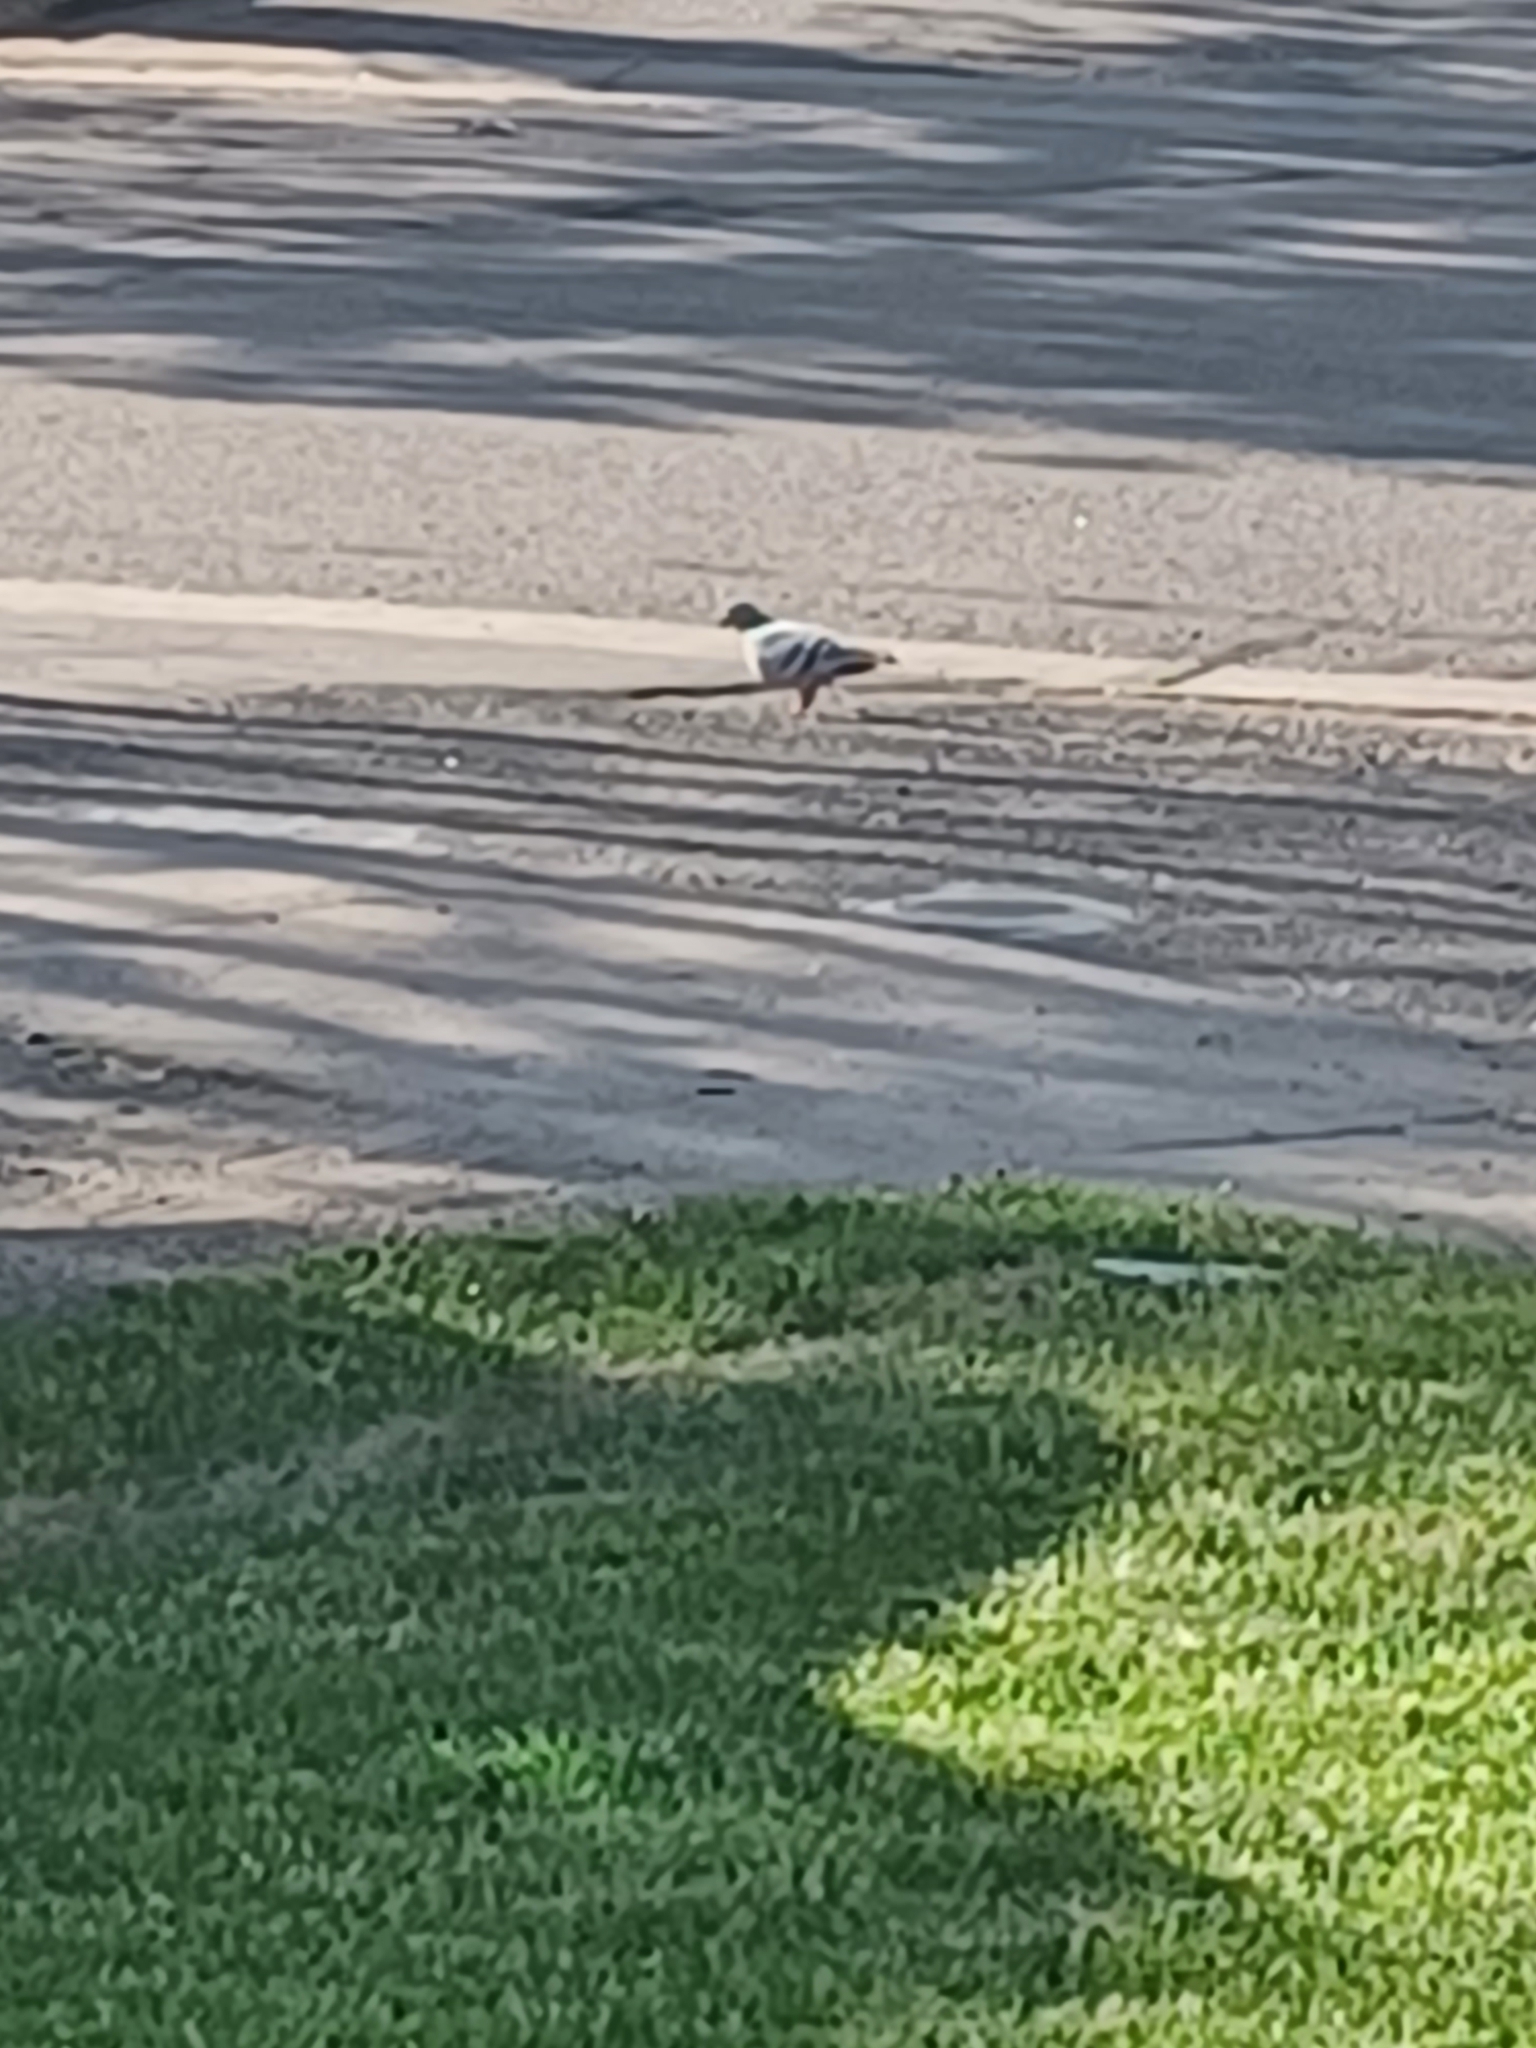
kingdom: Animalia
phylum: Chordata
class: Aves
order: Columbiformes
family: Columbidae
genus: Columba
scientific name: Columba livia
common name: Rock pigeon
